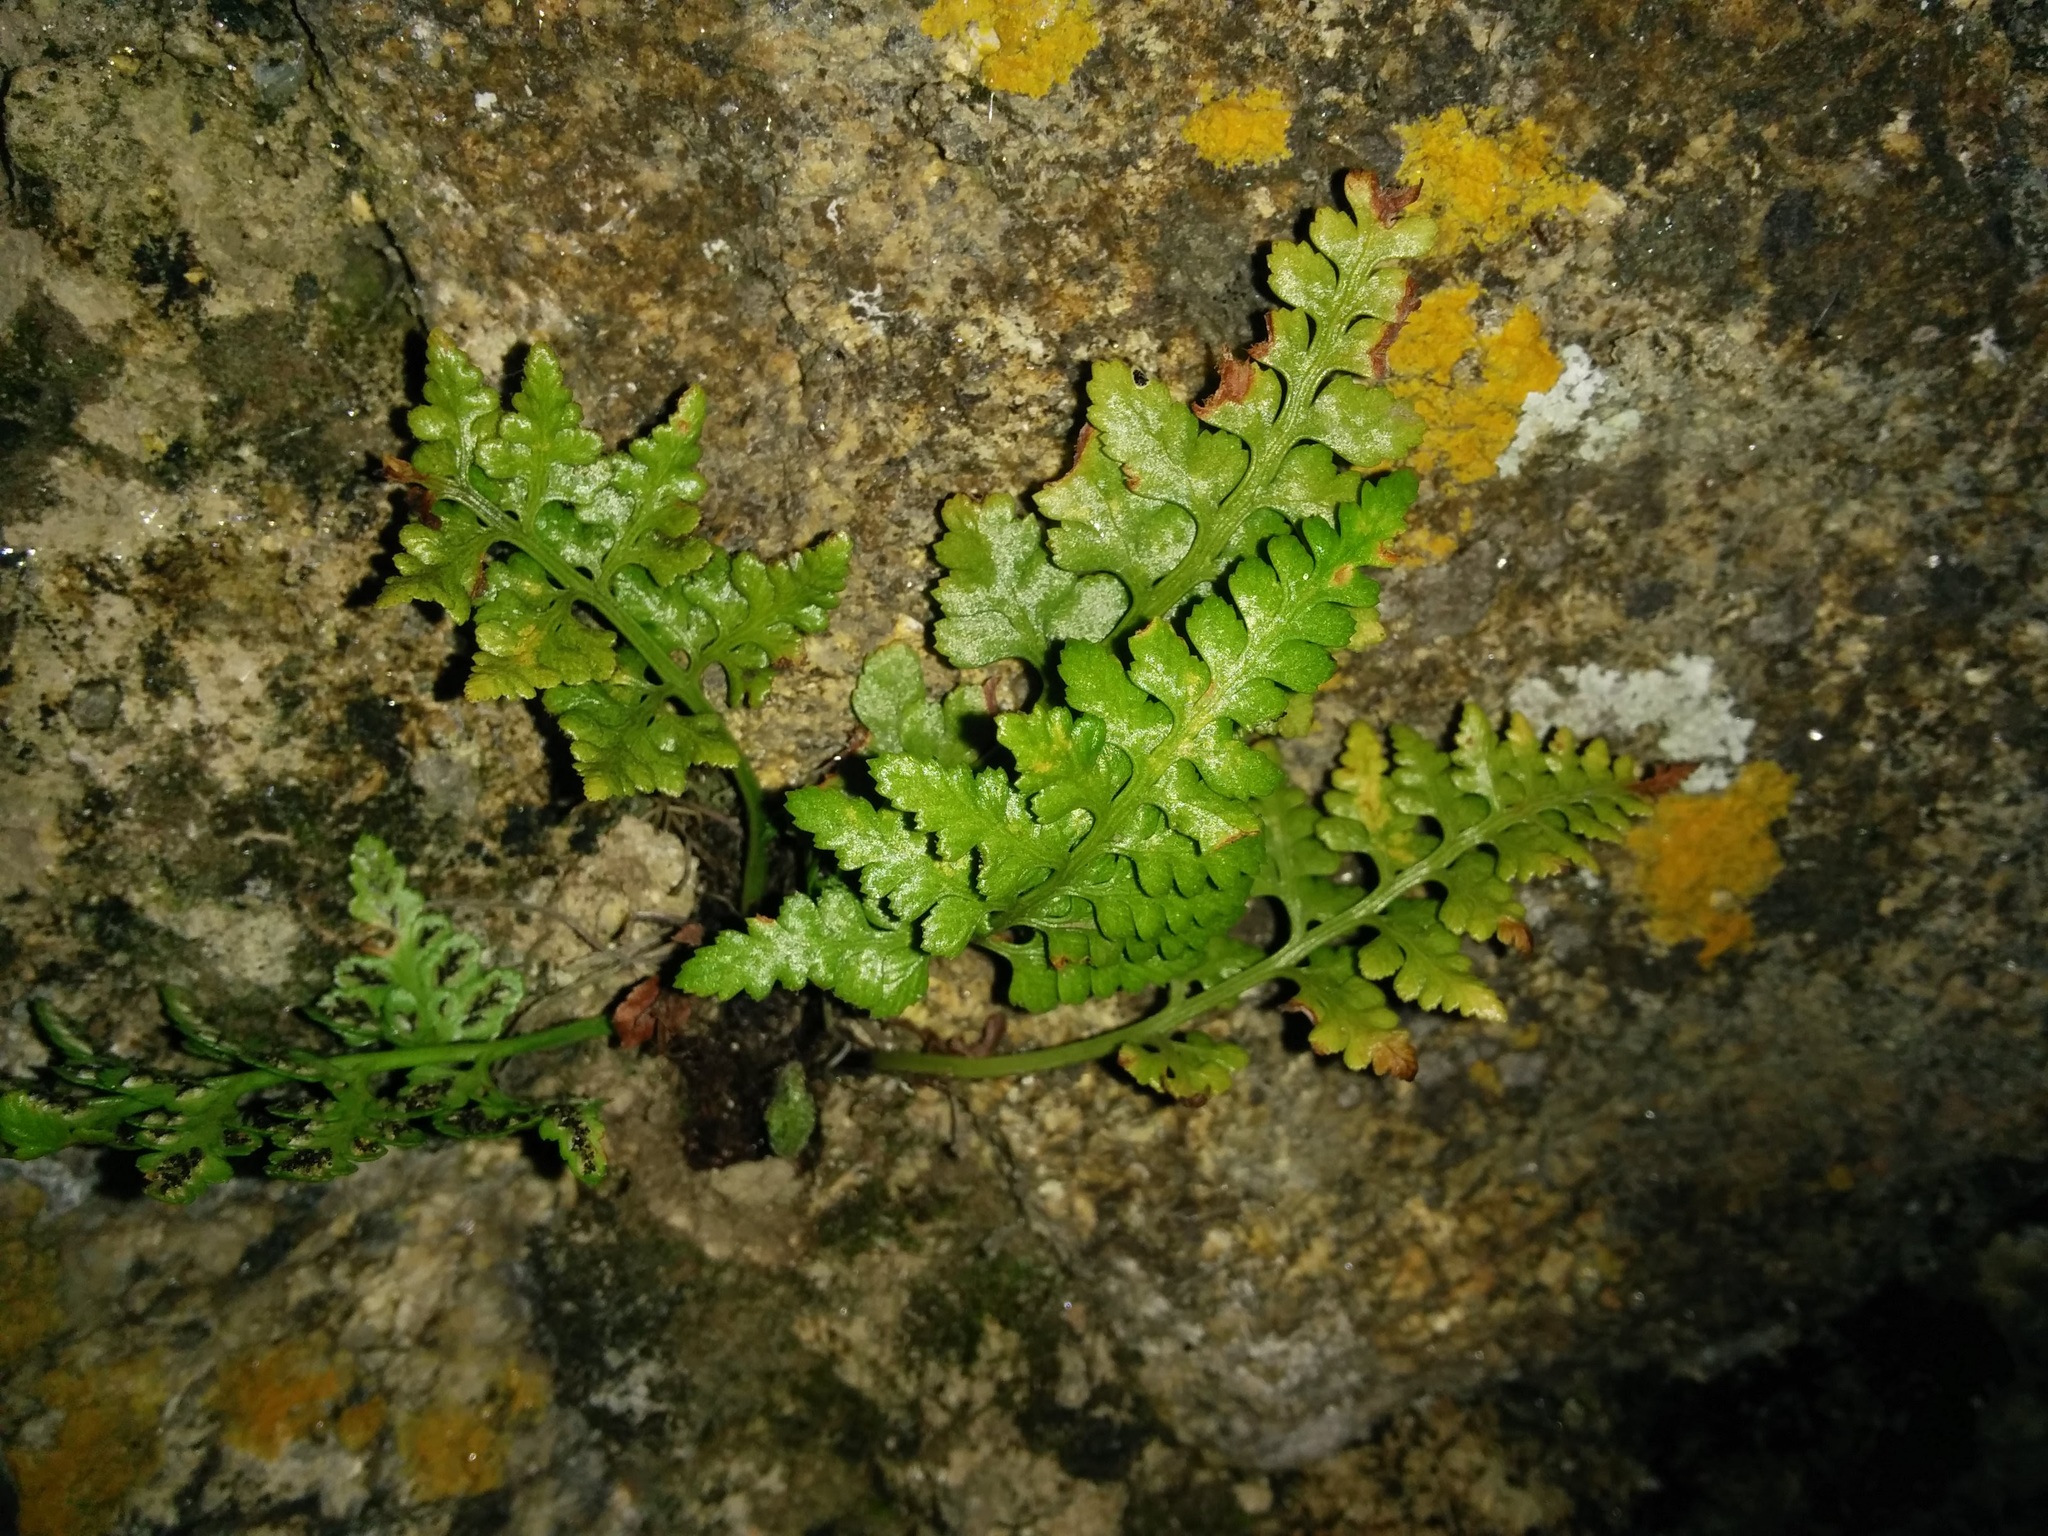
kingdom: Plantae
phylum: Tracheophyta
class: Polypodiopsida
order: Polypodiales
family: Aspleniaceae
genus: Asplenium
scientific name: Asplenium adiantum-nigrum
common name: Black spleenwort
